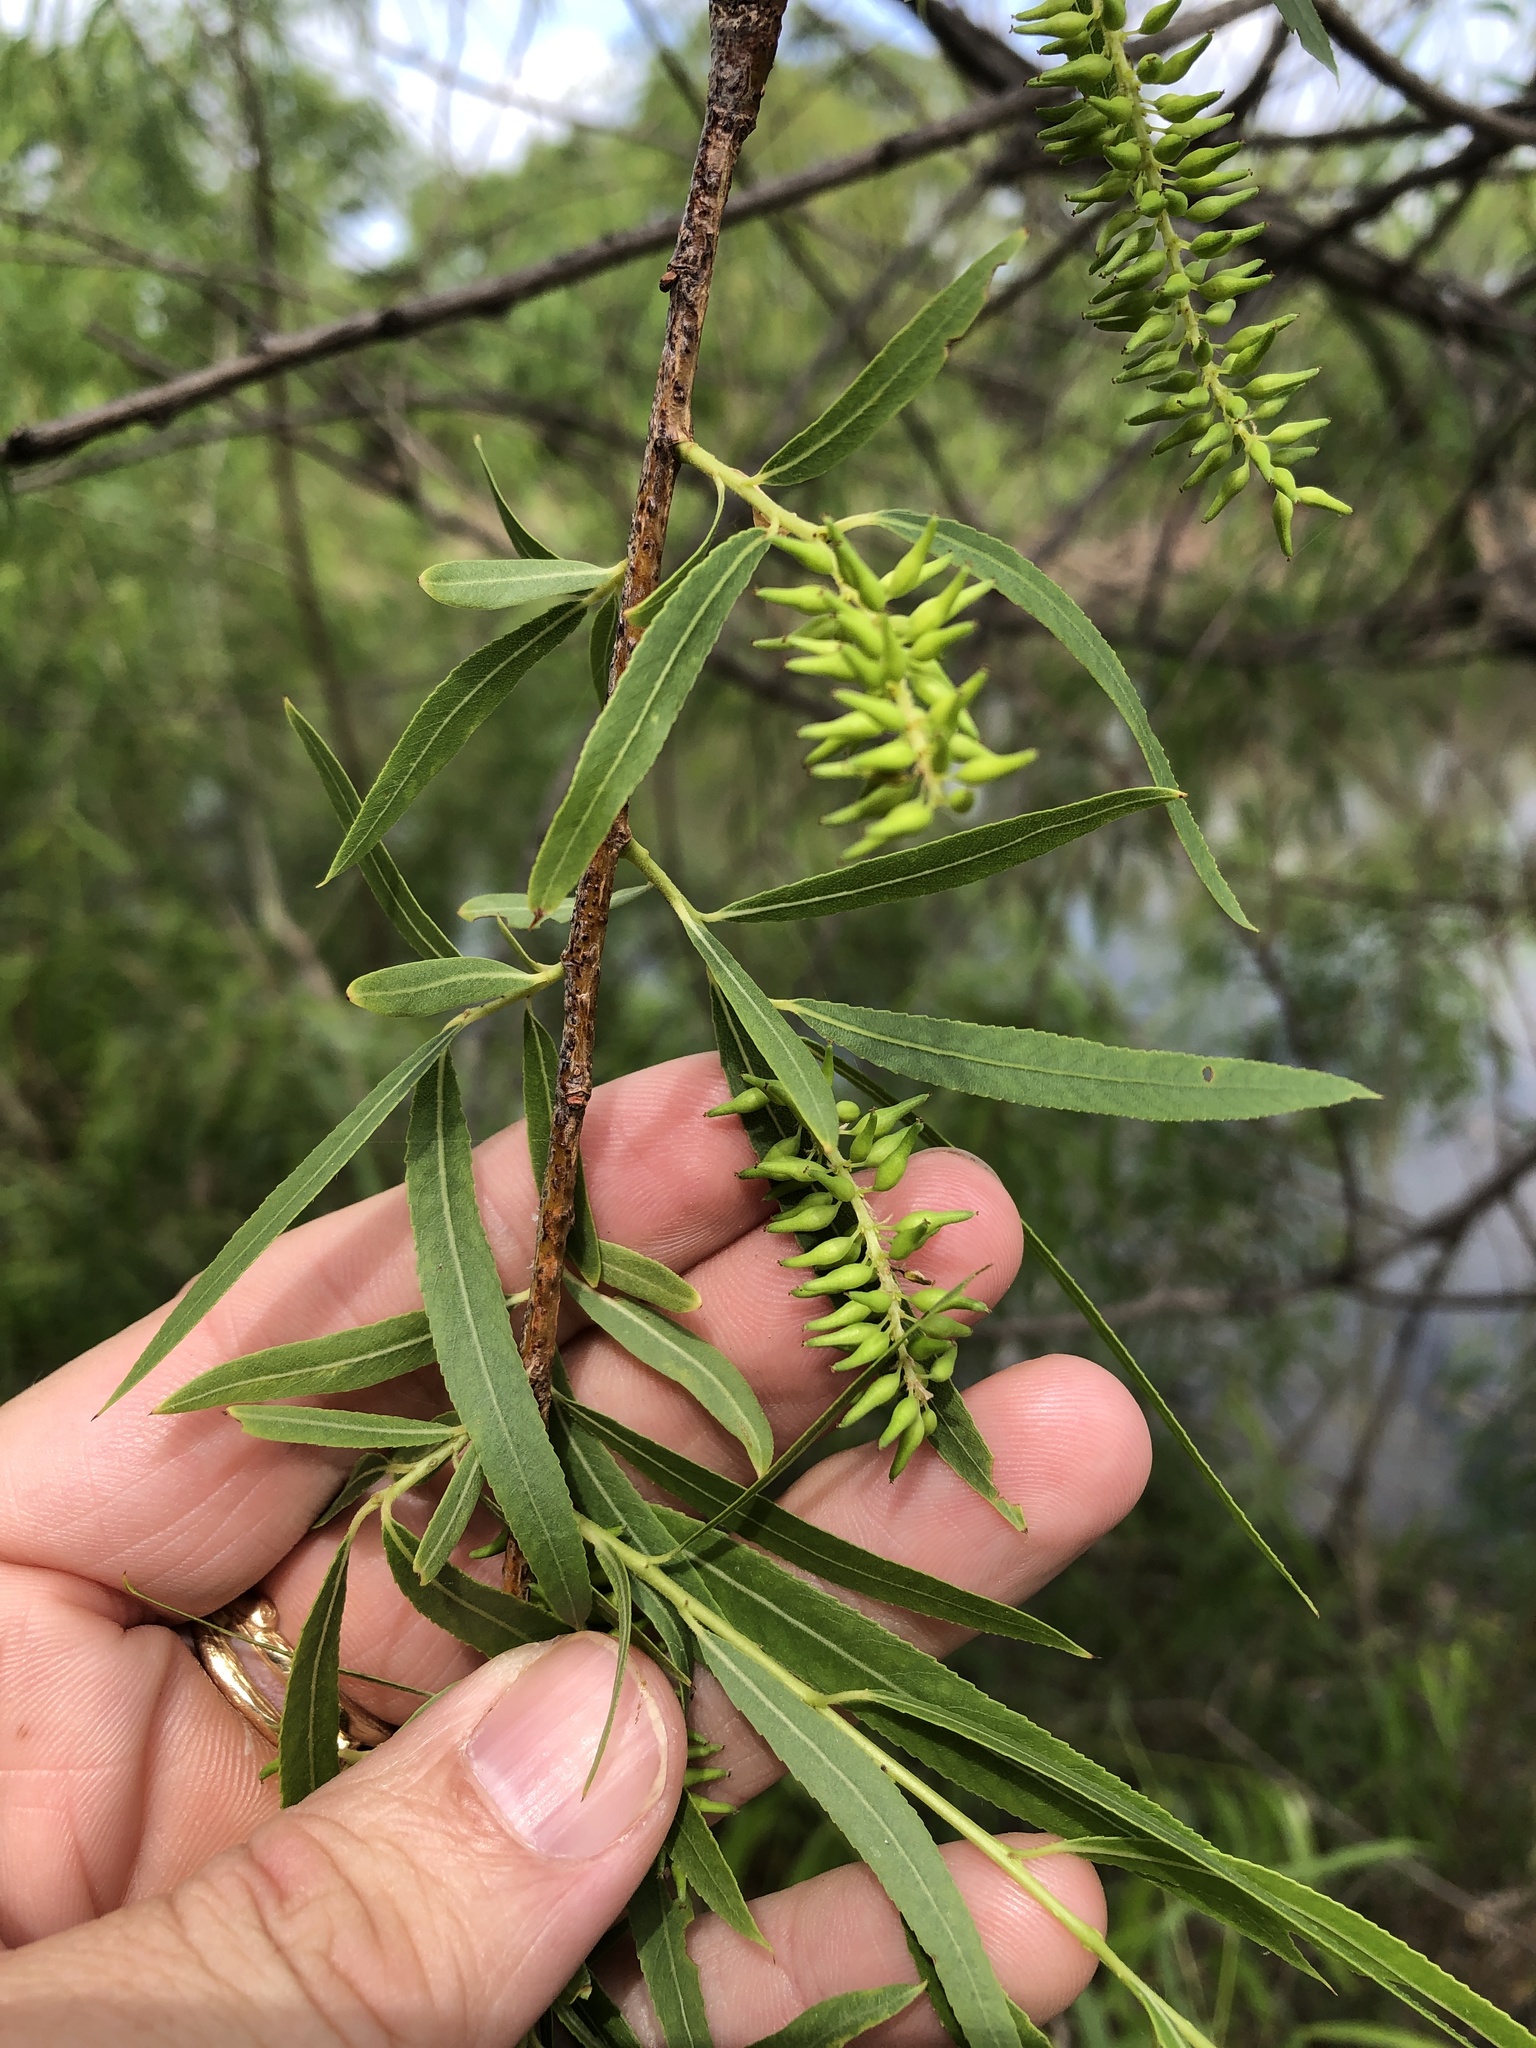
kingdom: Plantae
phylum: Tracheophyta
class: Magnoliopsida
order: Malpighiales
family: Salicaceae
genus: Salix
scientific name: Salix nigra
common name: Black willow
